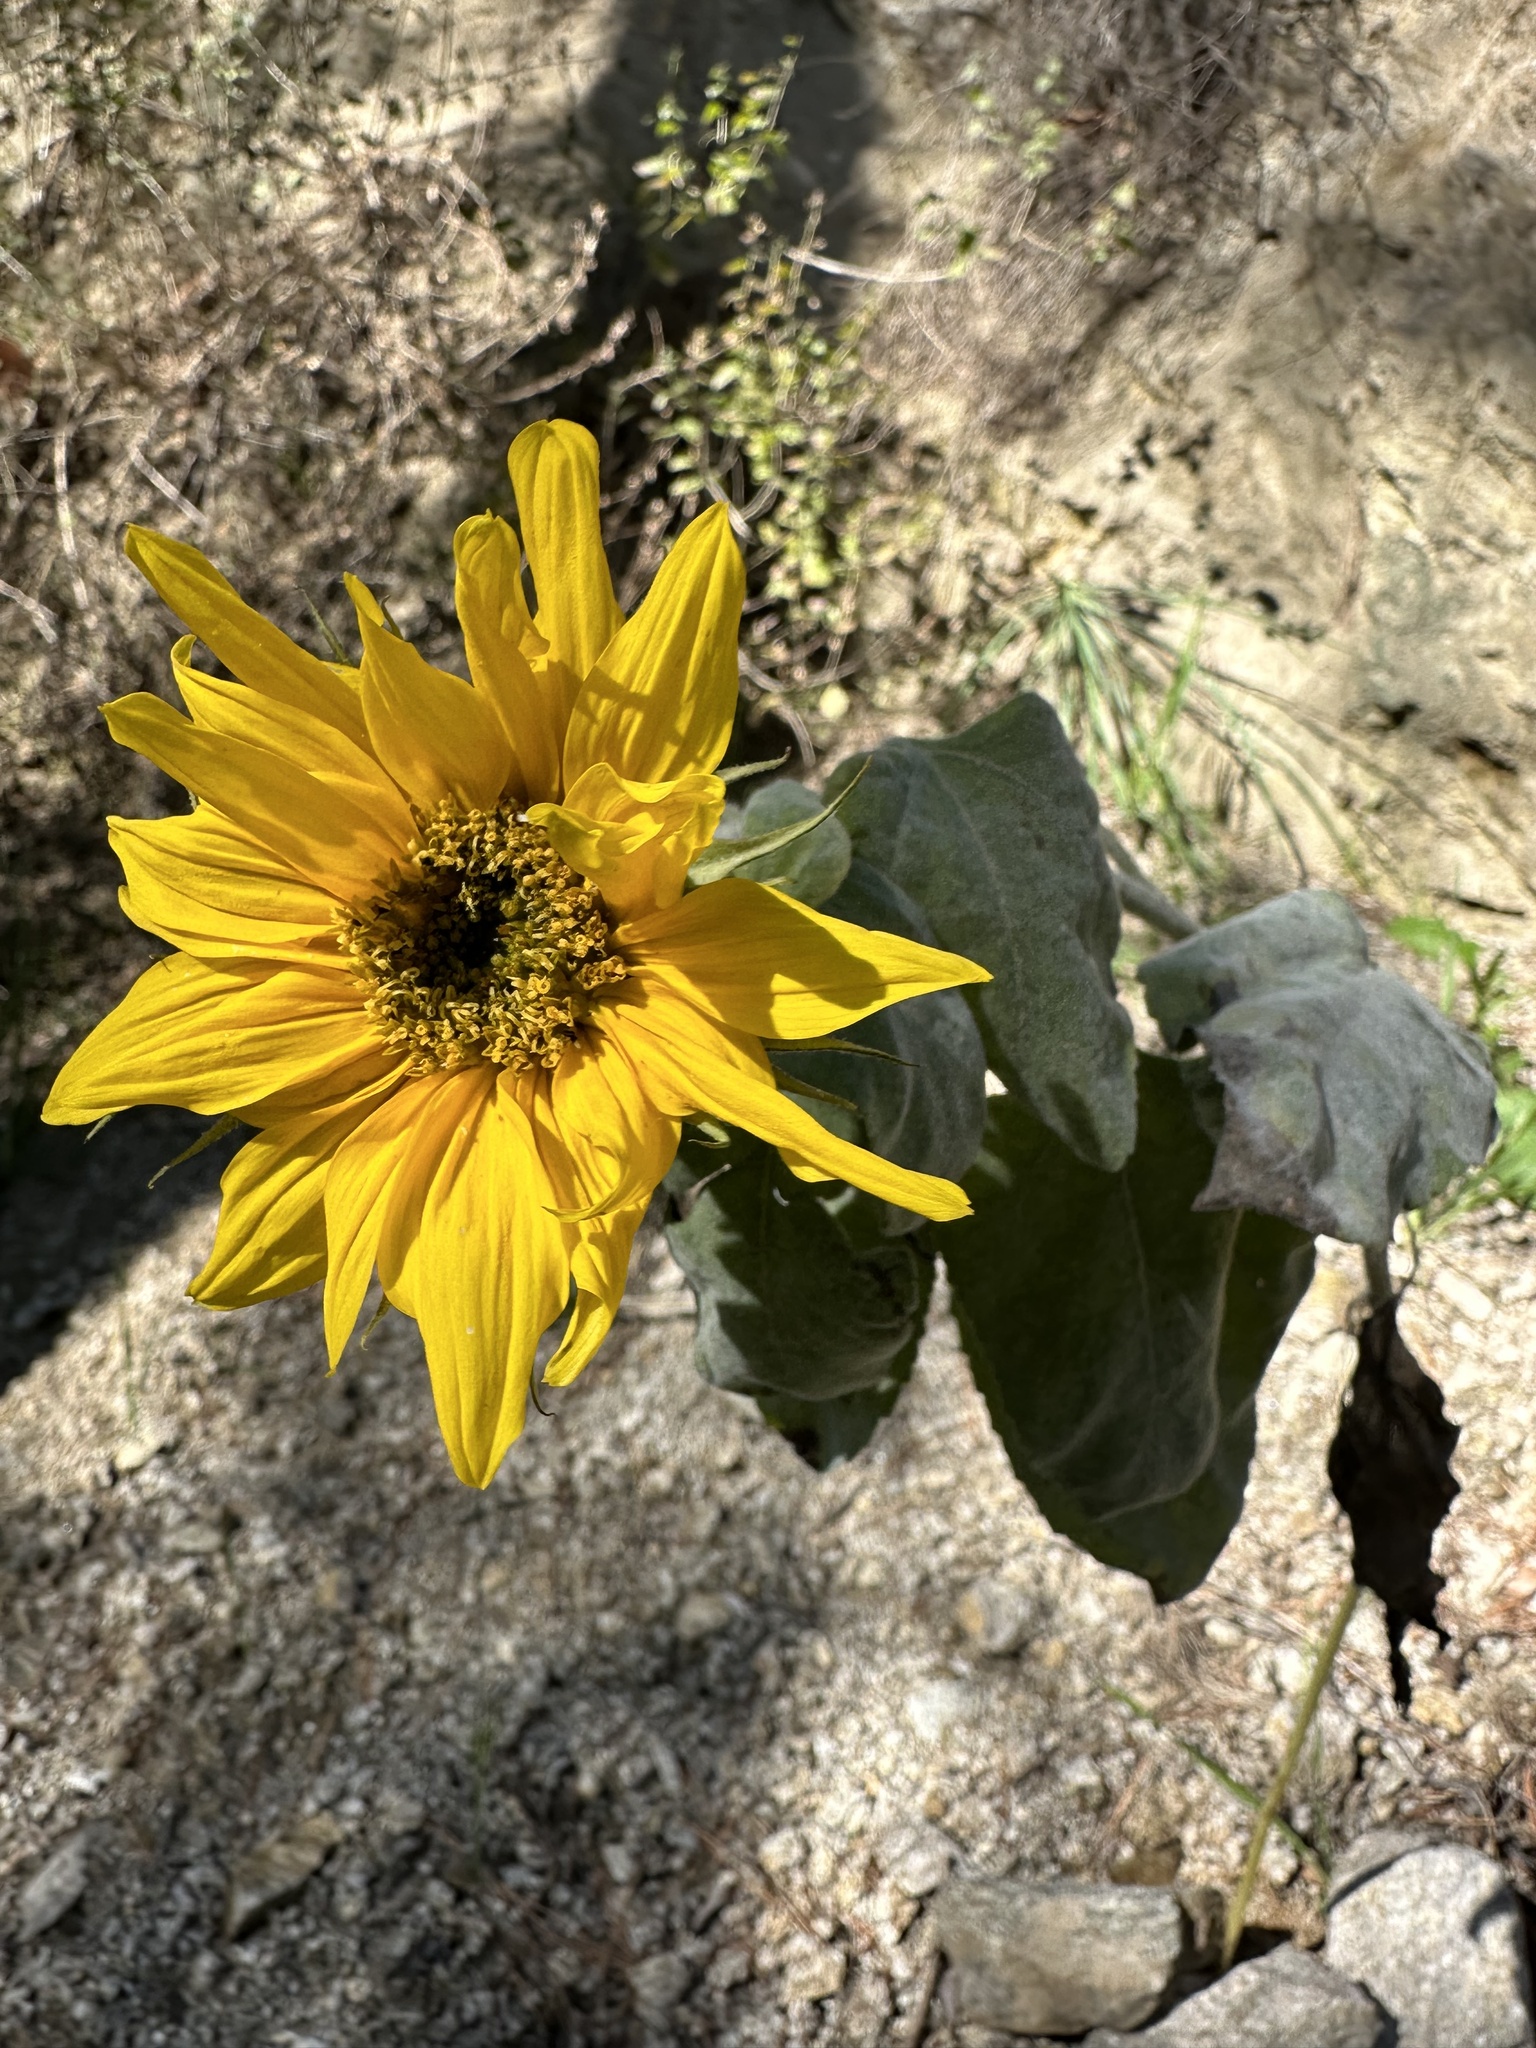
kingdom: Plantae
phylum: Tracheophyta
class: Magnoliopsida
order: Asterales
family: Asteraceae
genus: Helianthus
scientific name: Helianthus annuus
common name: Sunflower
